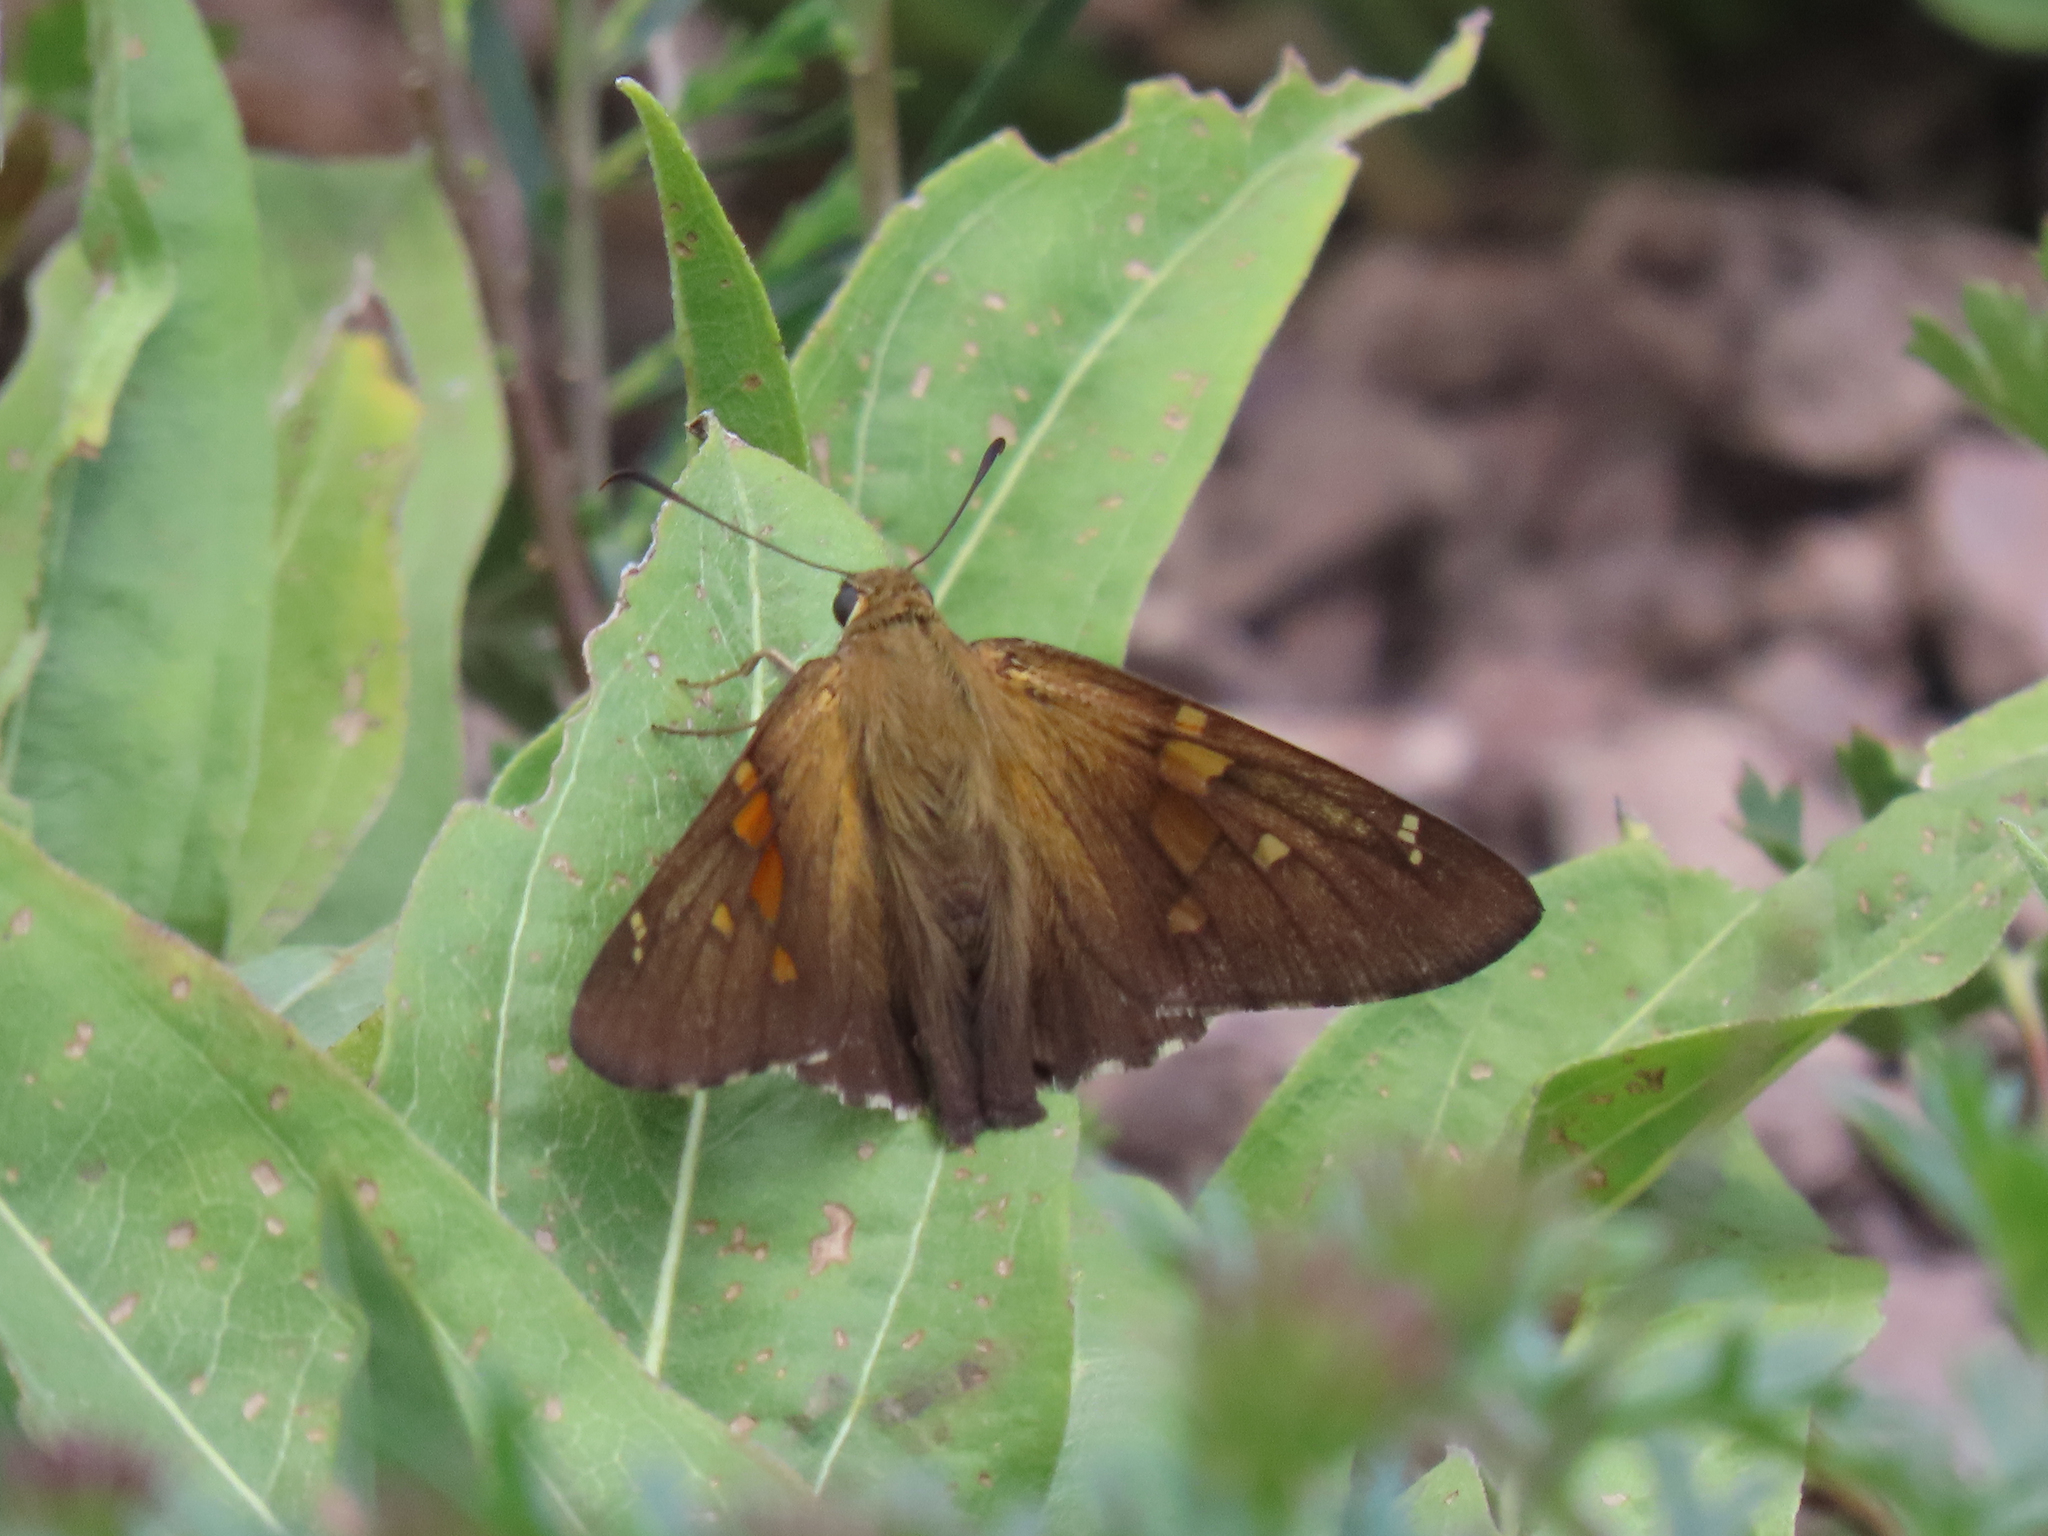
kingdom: Animalia
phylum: Arthropoda
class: Insecta
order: Lepidoptera
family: Hesperiidae
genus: Epargyreus
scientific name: Epargyreus clarus
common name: Silver-spotted skipper
